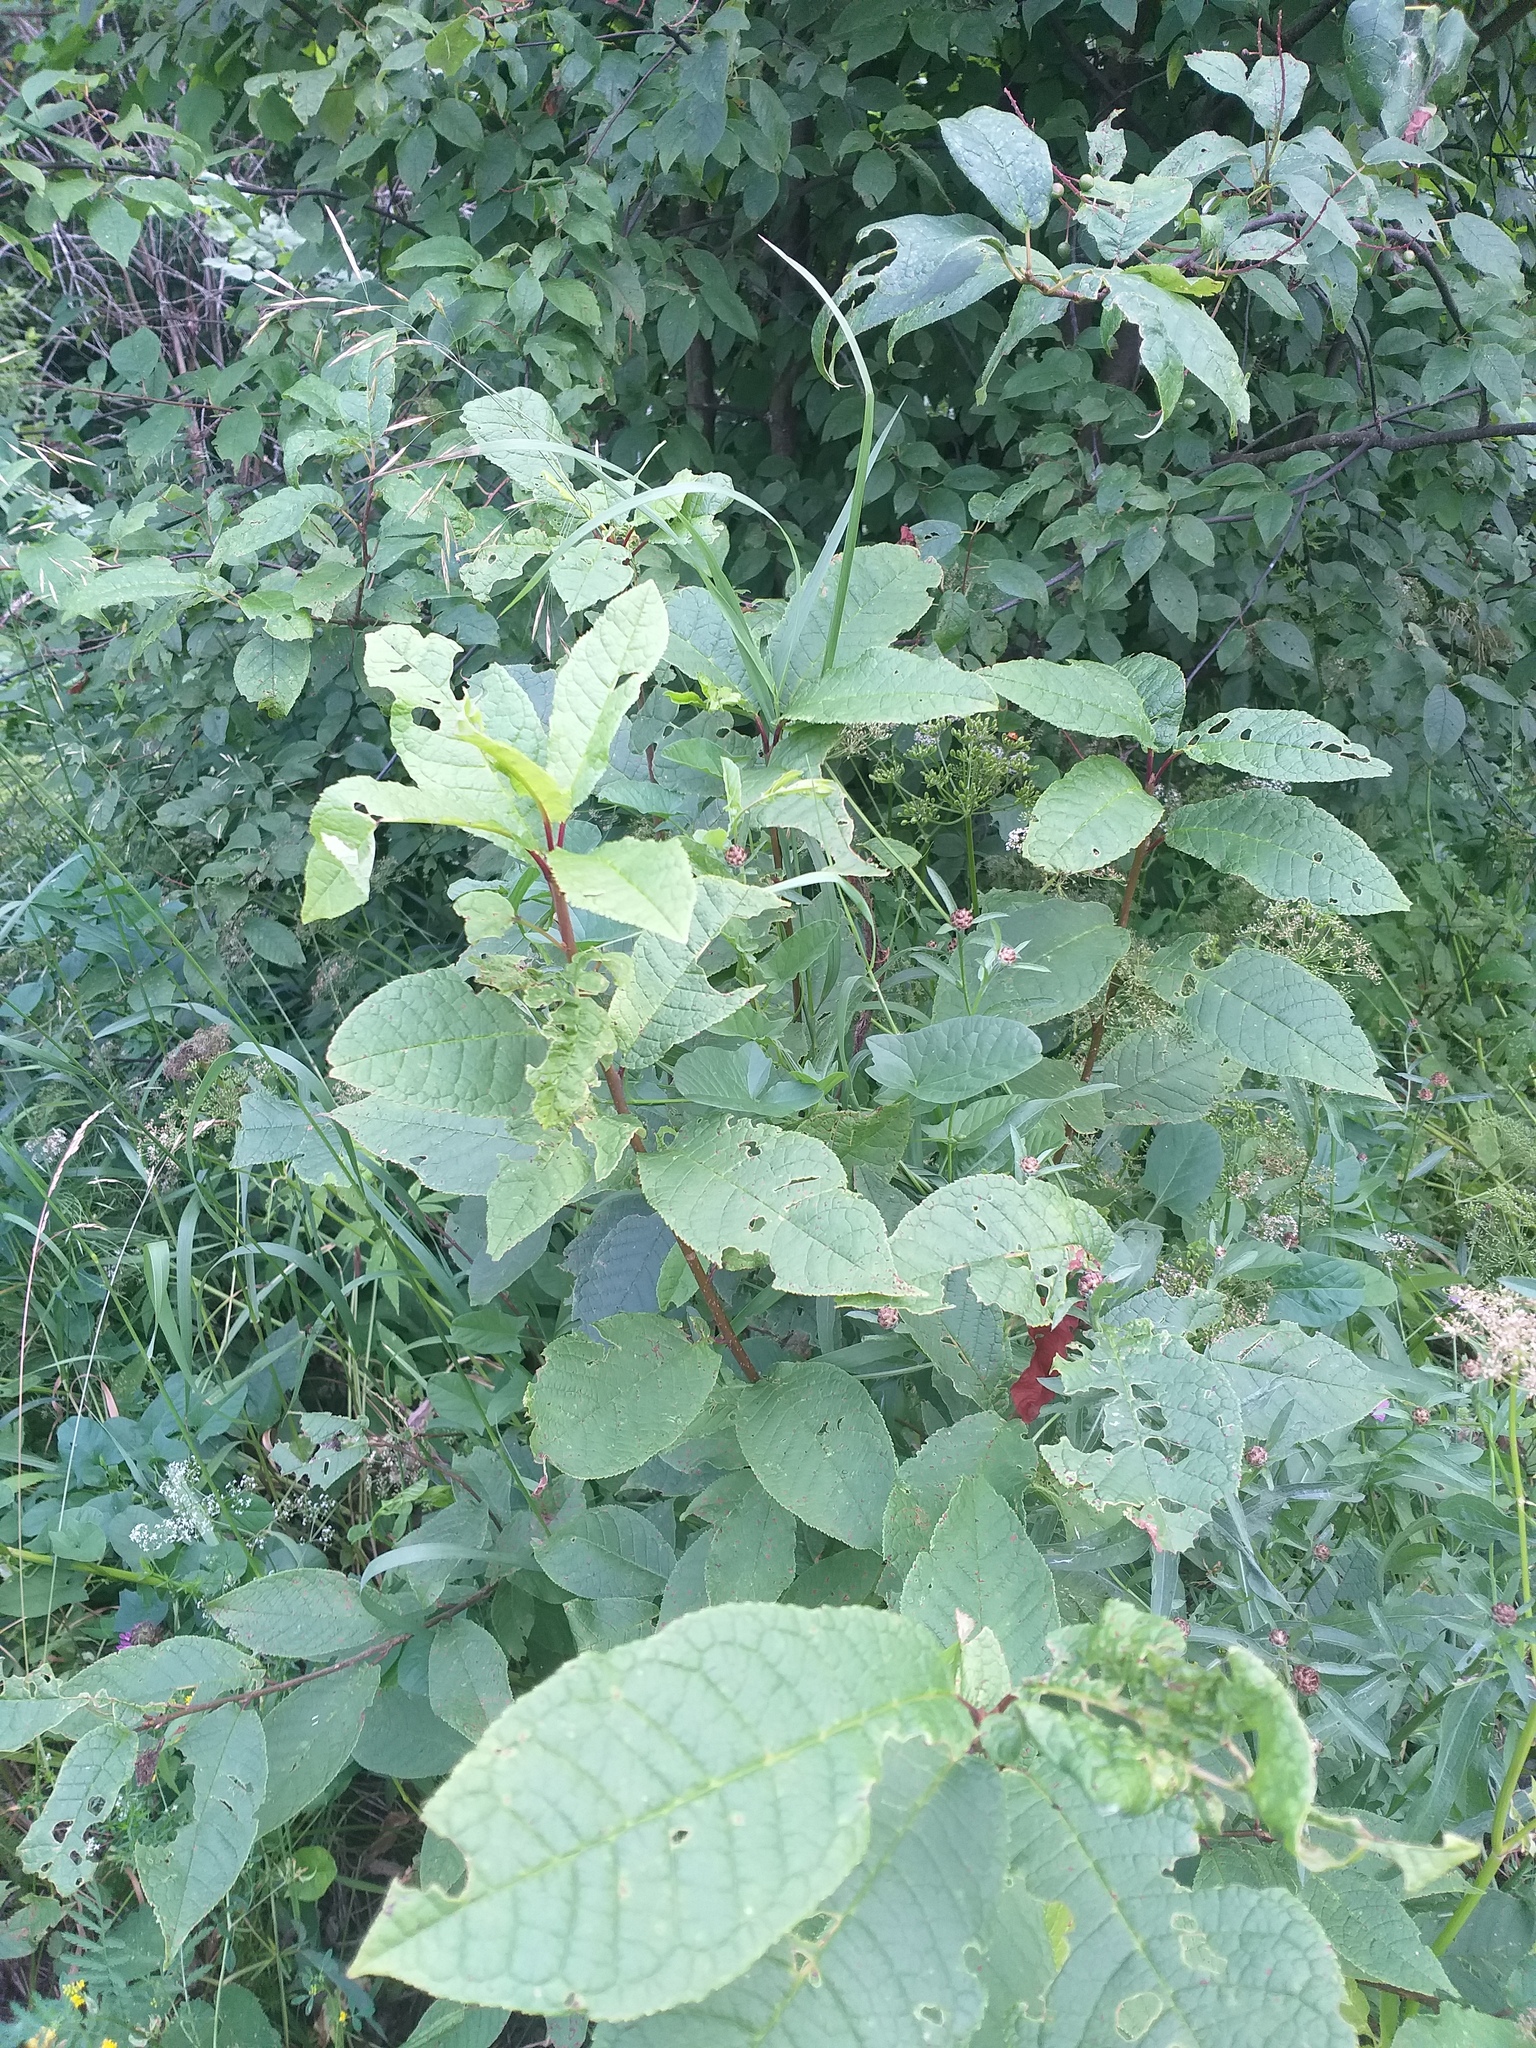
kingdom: Plantae
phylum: Tracheophyta
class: Magnoliopsida
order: Rosales
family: Rosaceae
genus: Prunus
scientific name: Prunus padus
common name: Bird cherry
